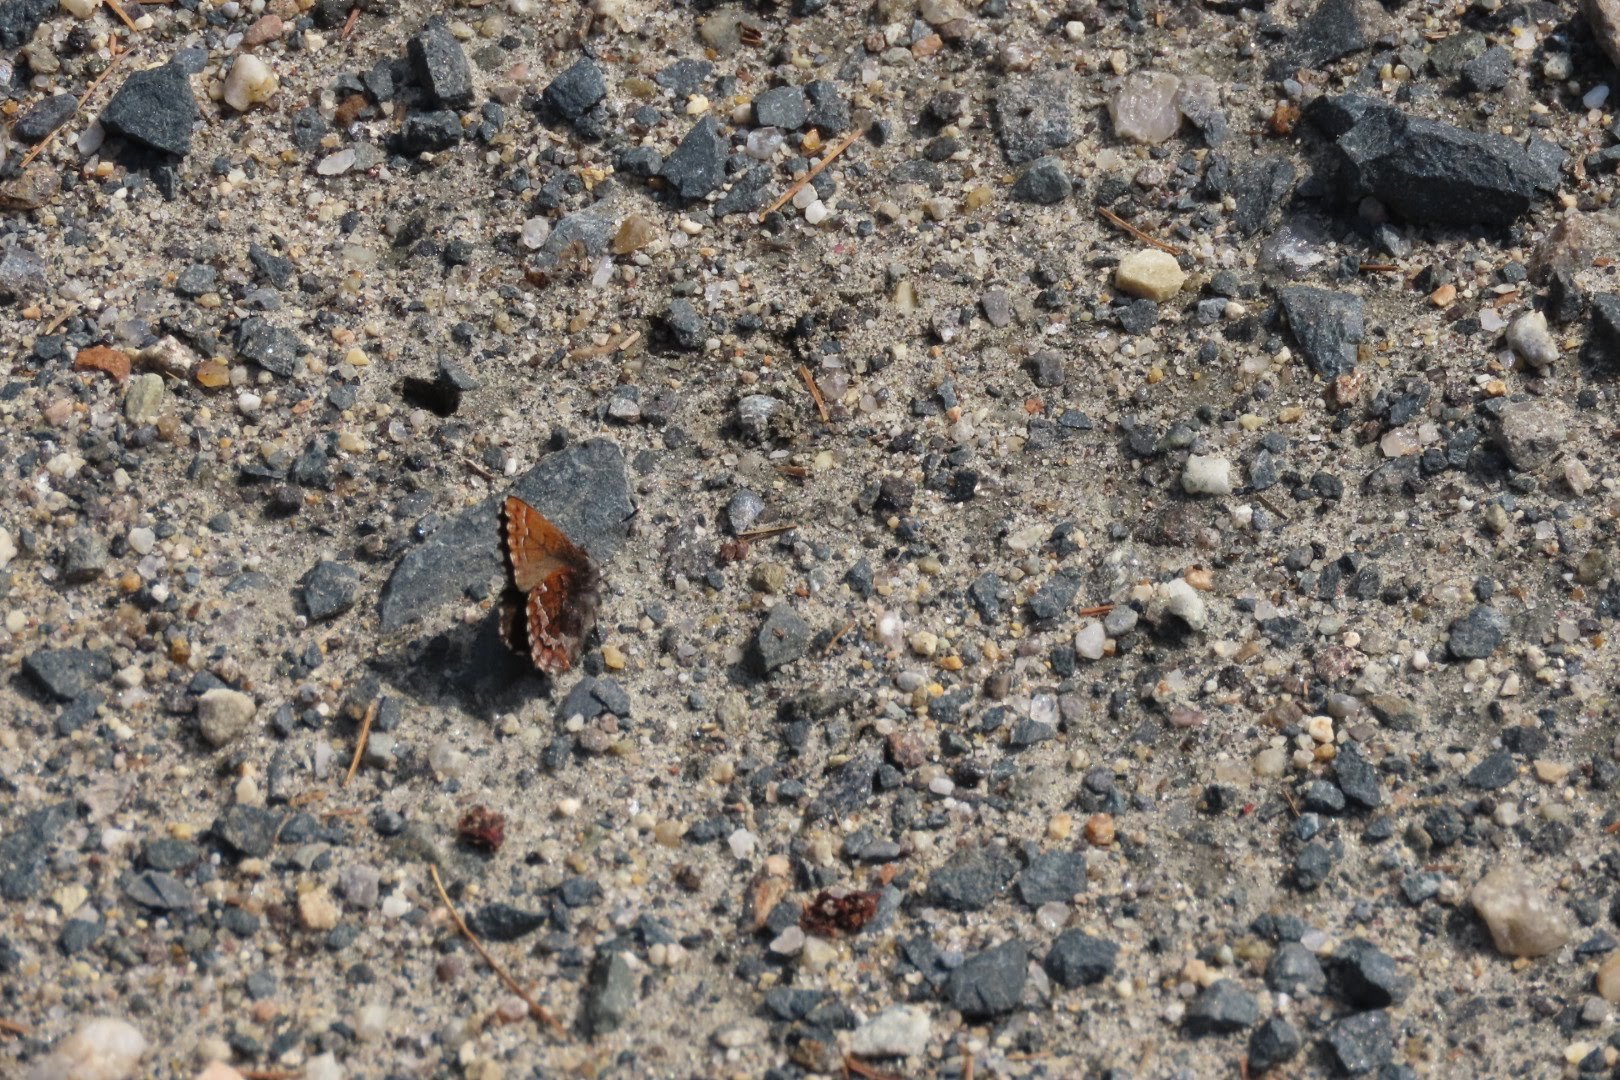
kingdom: Animalia
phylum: Arthropoda
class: Insecta
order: Lepidoptera
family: Lycaenidae
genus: Incisalia
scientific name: Incisalia niphon
